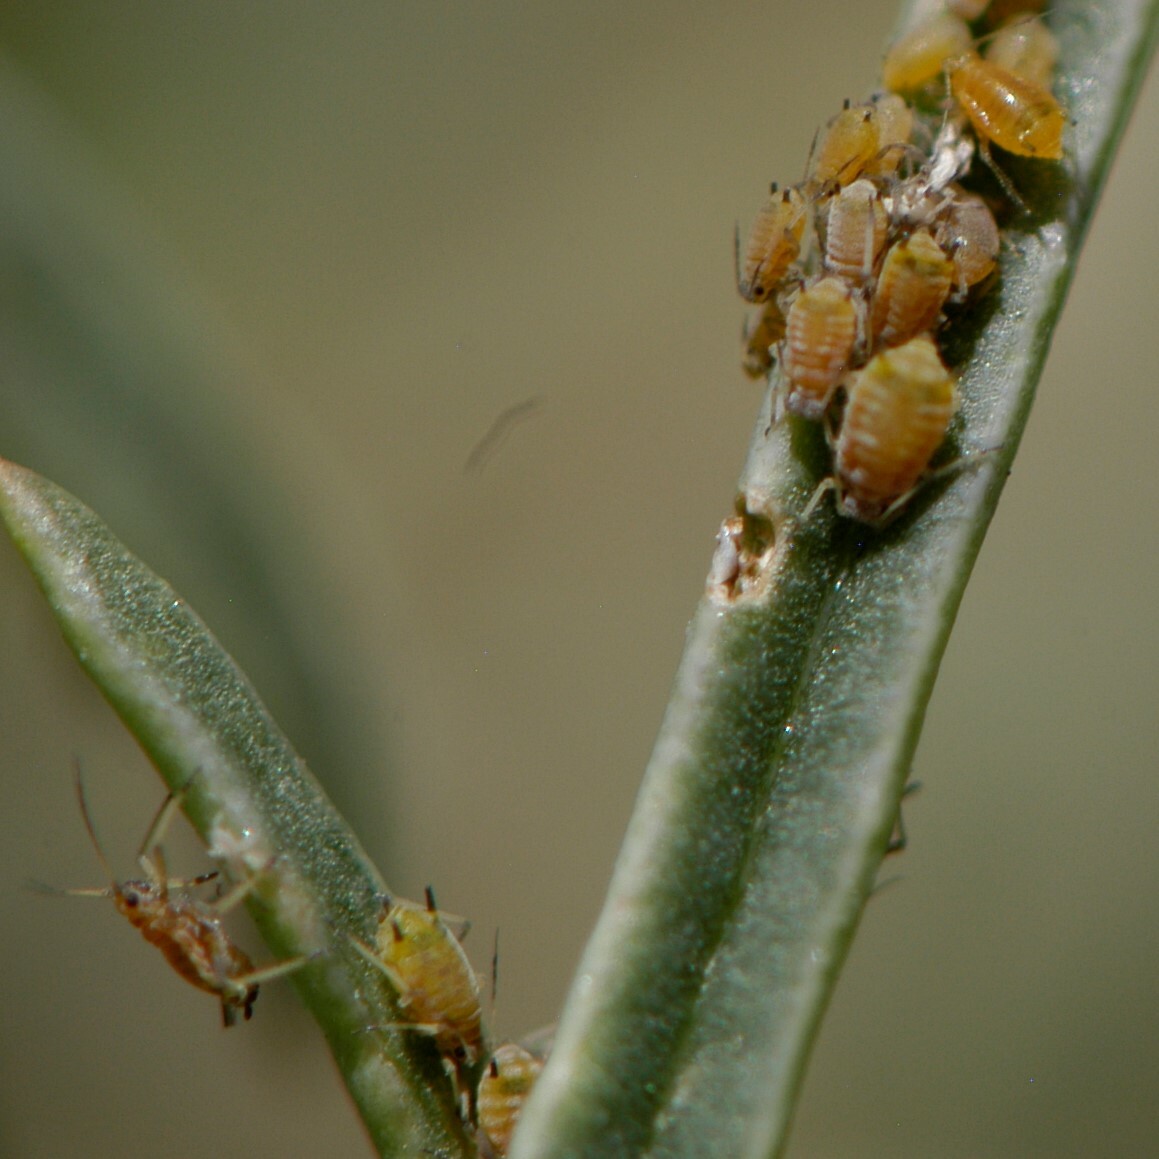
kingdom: Animalia
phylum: Arthropoda
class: Insecta
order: Hemiptera
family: Aphididae
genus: Aphis
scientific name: Aphis asclepiadis
